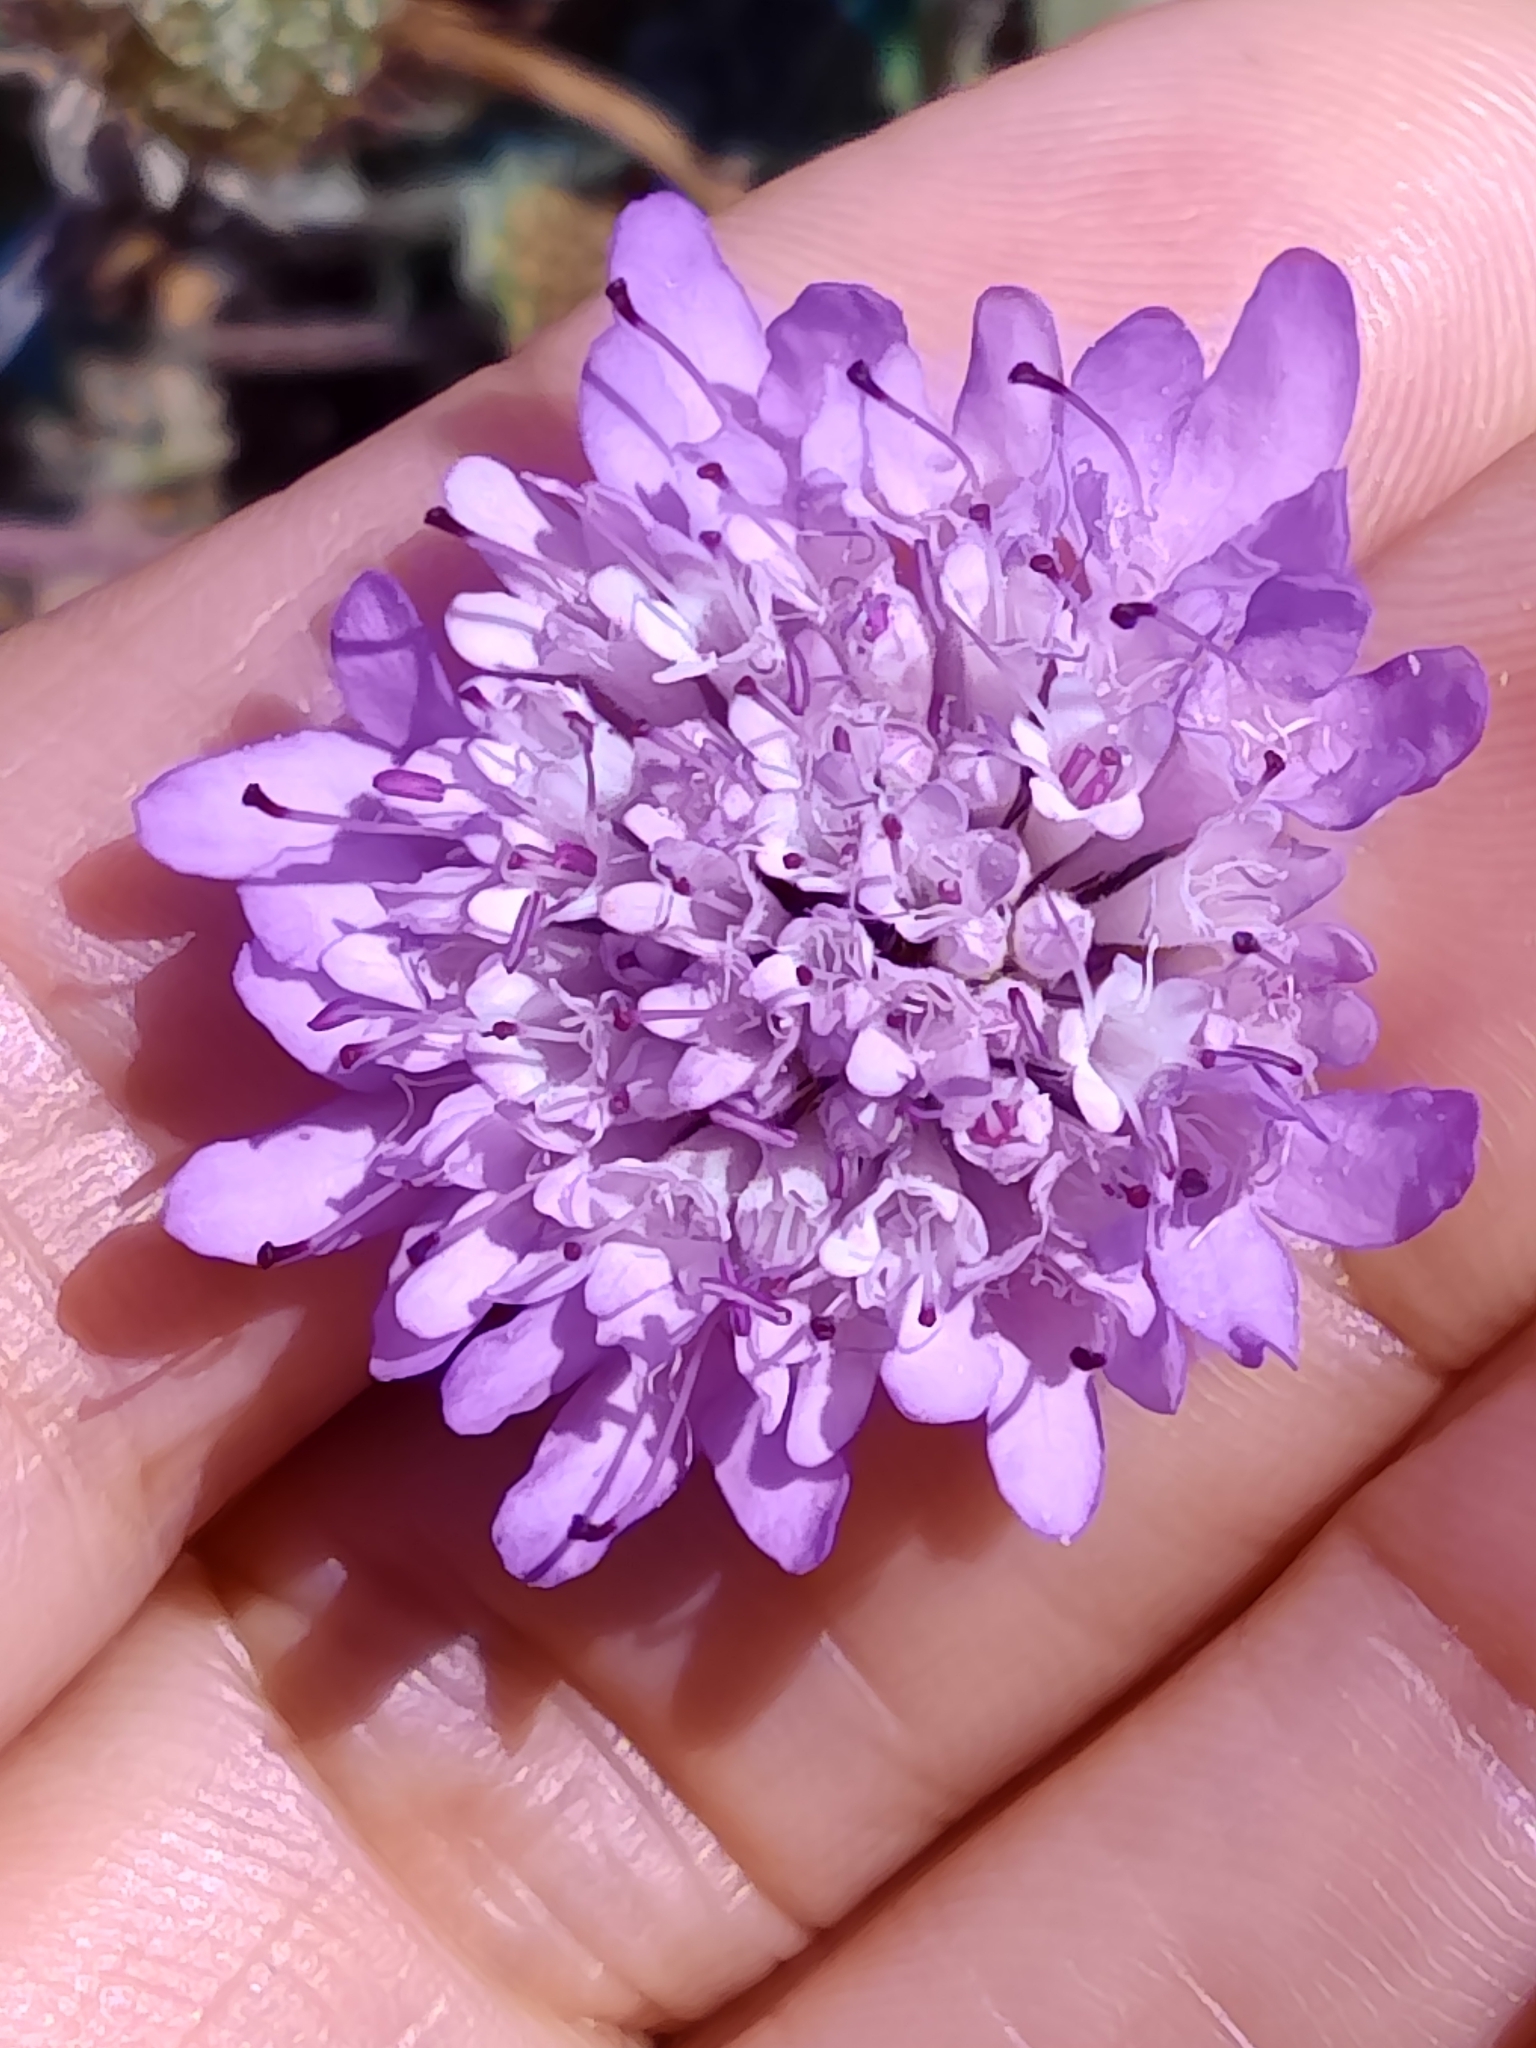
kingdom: Plantae
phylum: Tracheophyta
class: Magnoliopsida
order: Dipsacales
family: Caprifoliaceae
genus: Sixalix
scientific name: Sixalix atropurpurea
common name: Sweet scabious
